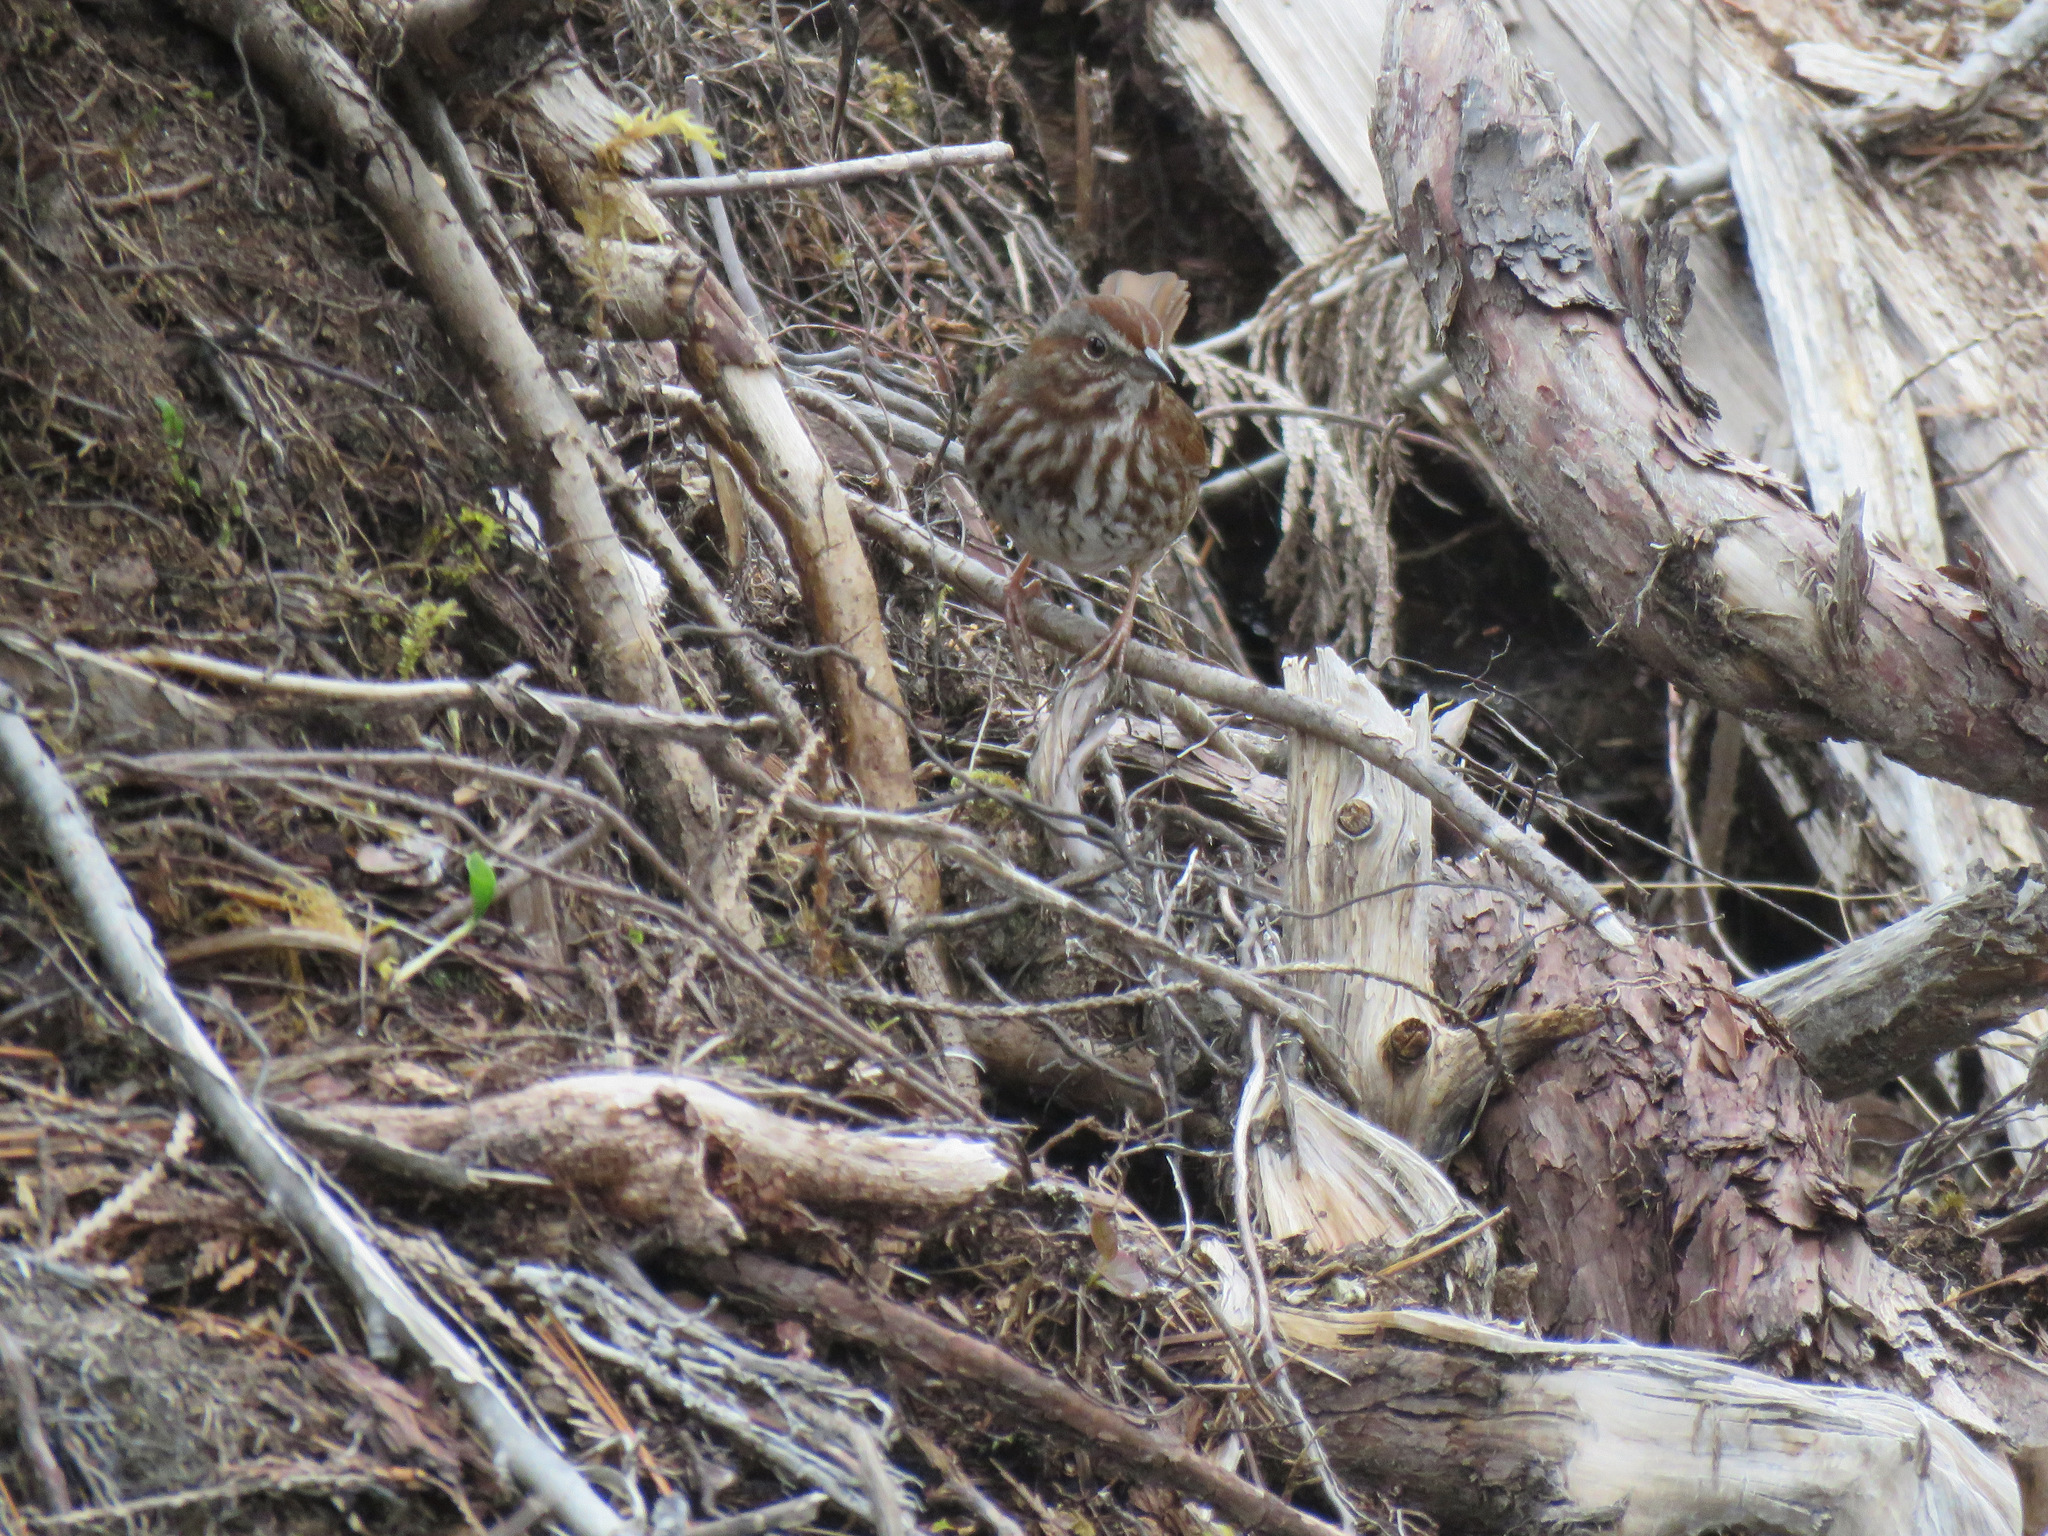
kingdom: Animalia
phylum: Chordata
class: Aves
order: Passeriformes
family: Passerellidae
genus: Melospiza
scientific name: Melospiza melodia
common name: Song sparrow
